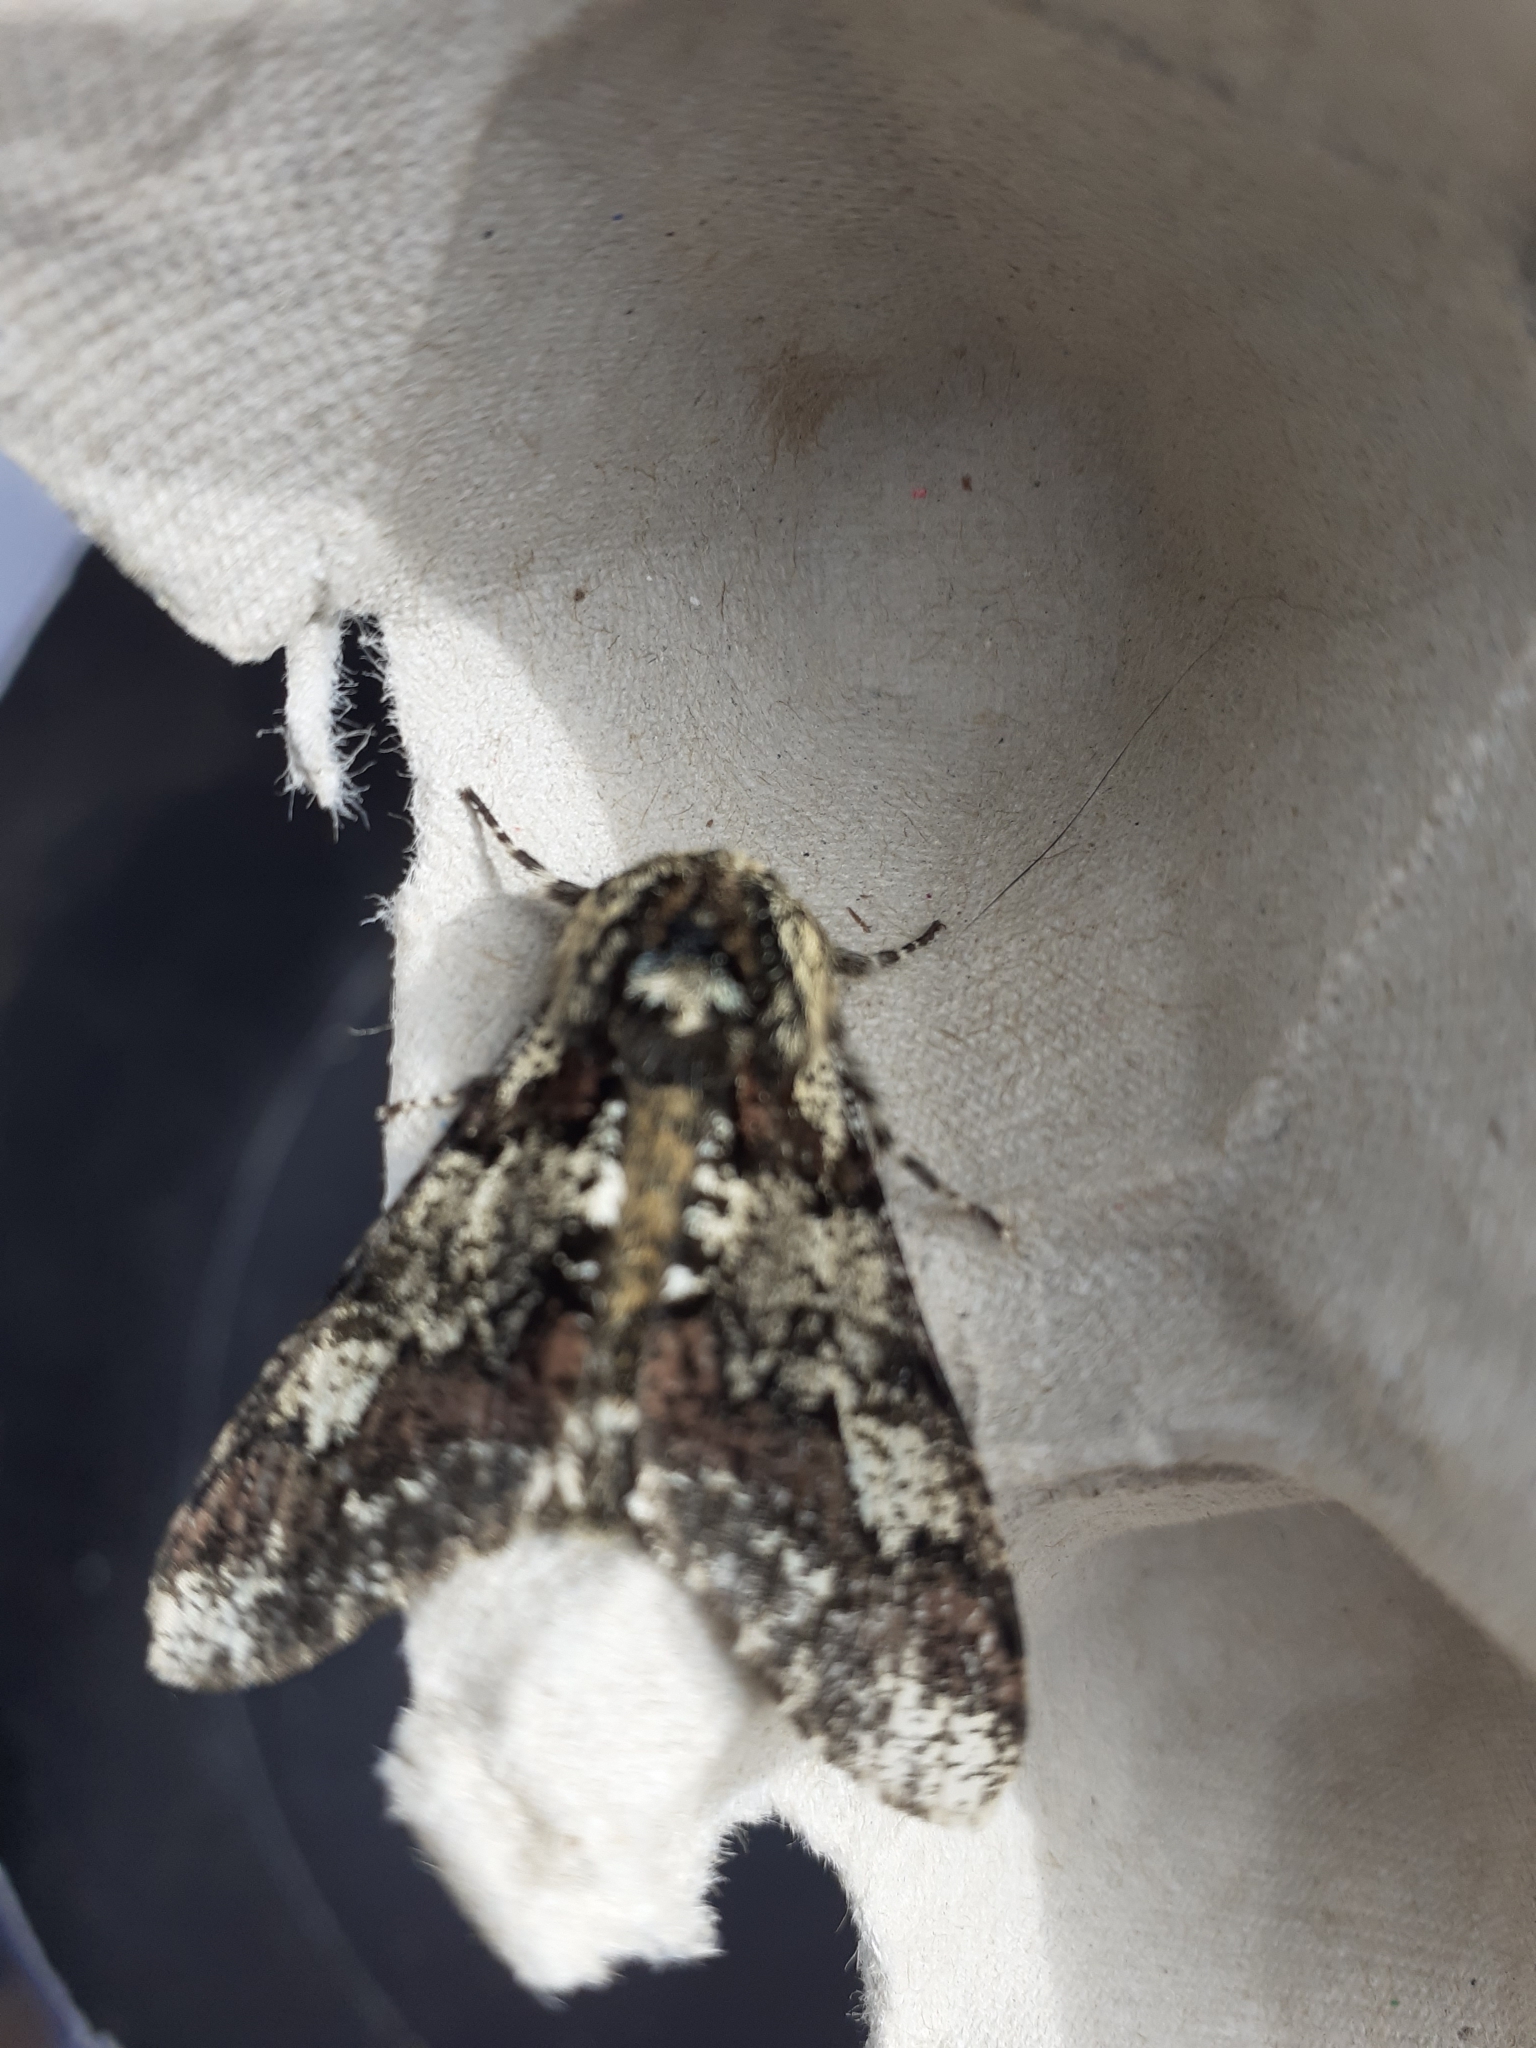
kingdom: Animalia
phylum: Arthropoda
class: Insecta
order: Lepidoptera
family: Geometridae
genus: Biston
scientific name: Biston strataria
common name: Oak beauty
